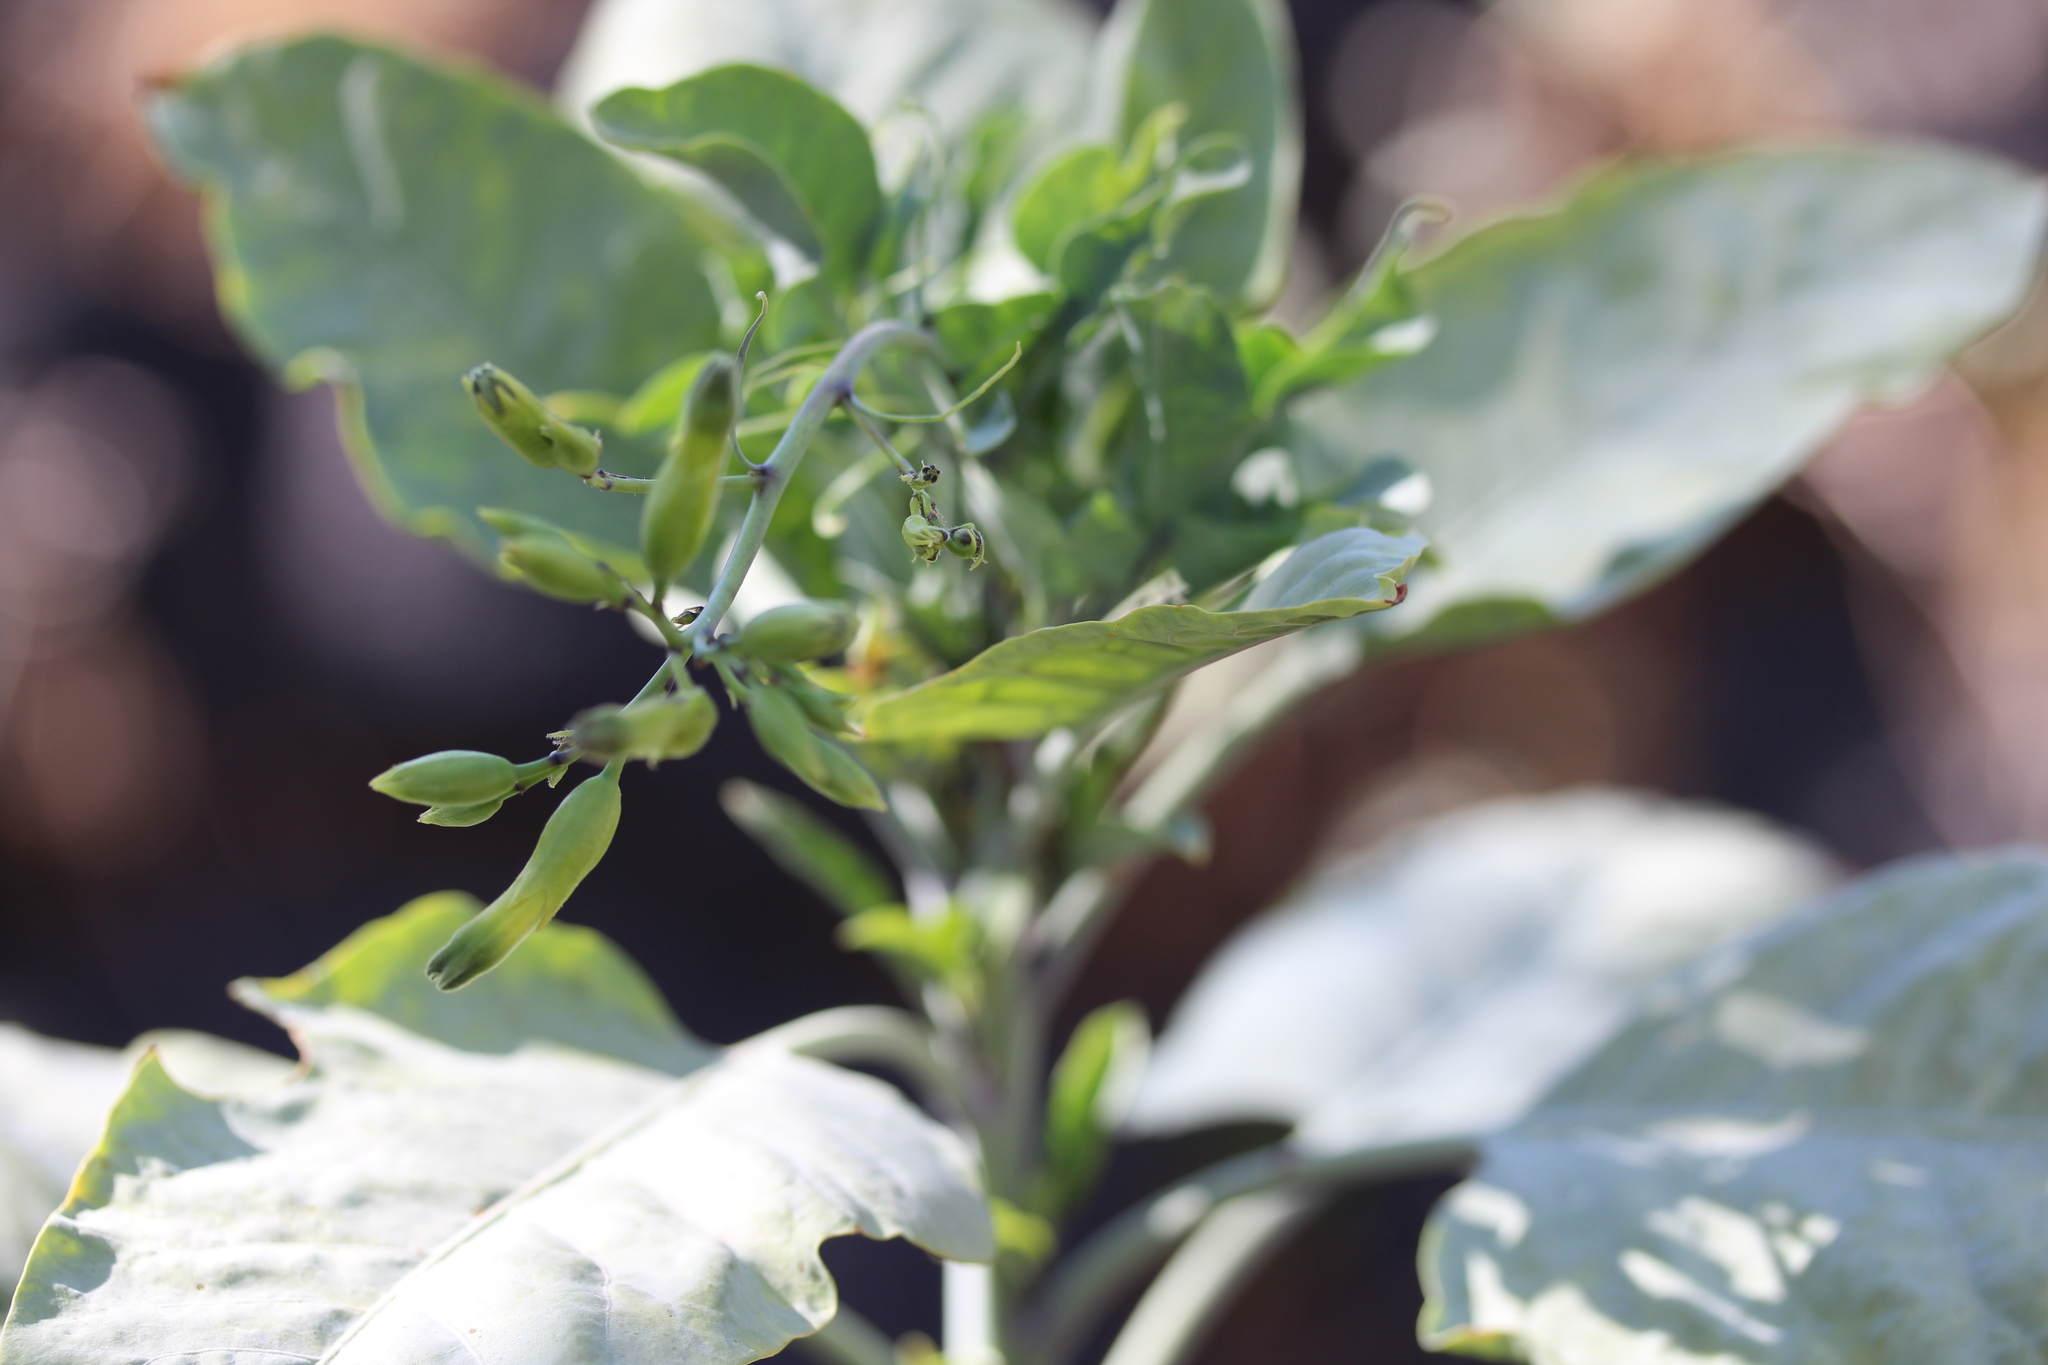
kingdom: Plantae
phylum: Tracheophyta
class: Magnoliopsida
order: Solanales
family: Solanaceae
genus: Nicotiana
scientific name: Nicotiana glauca
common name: Tree tobacco
